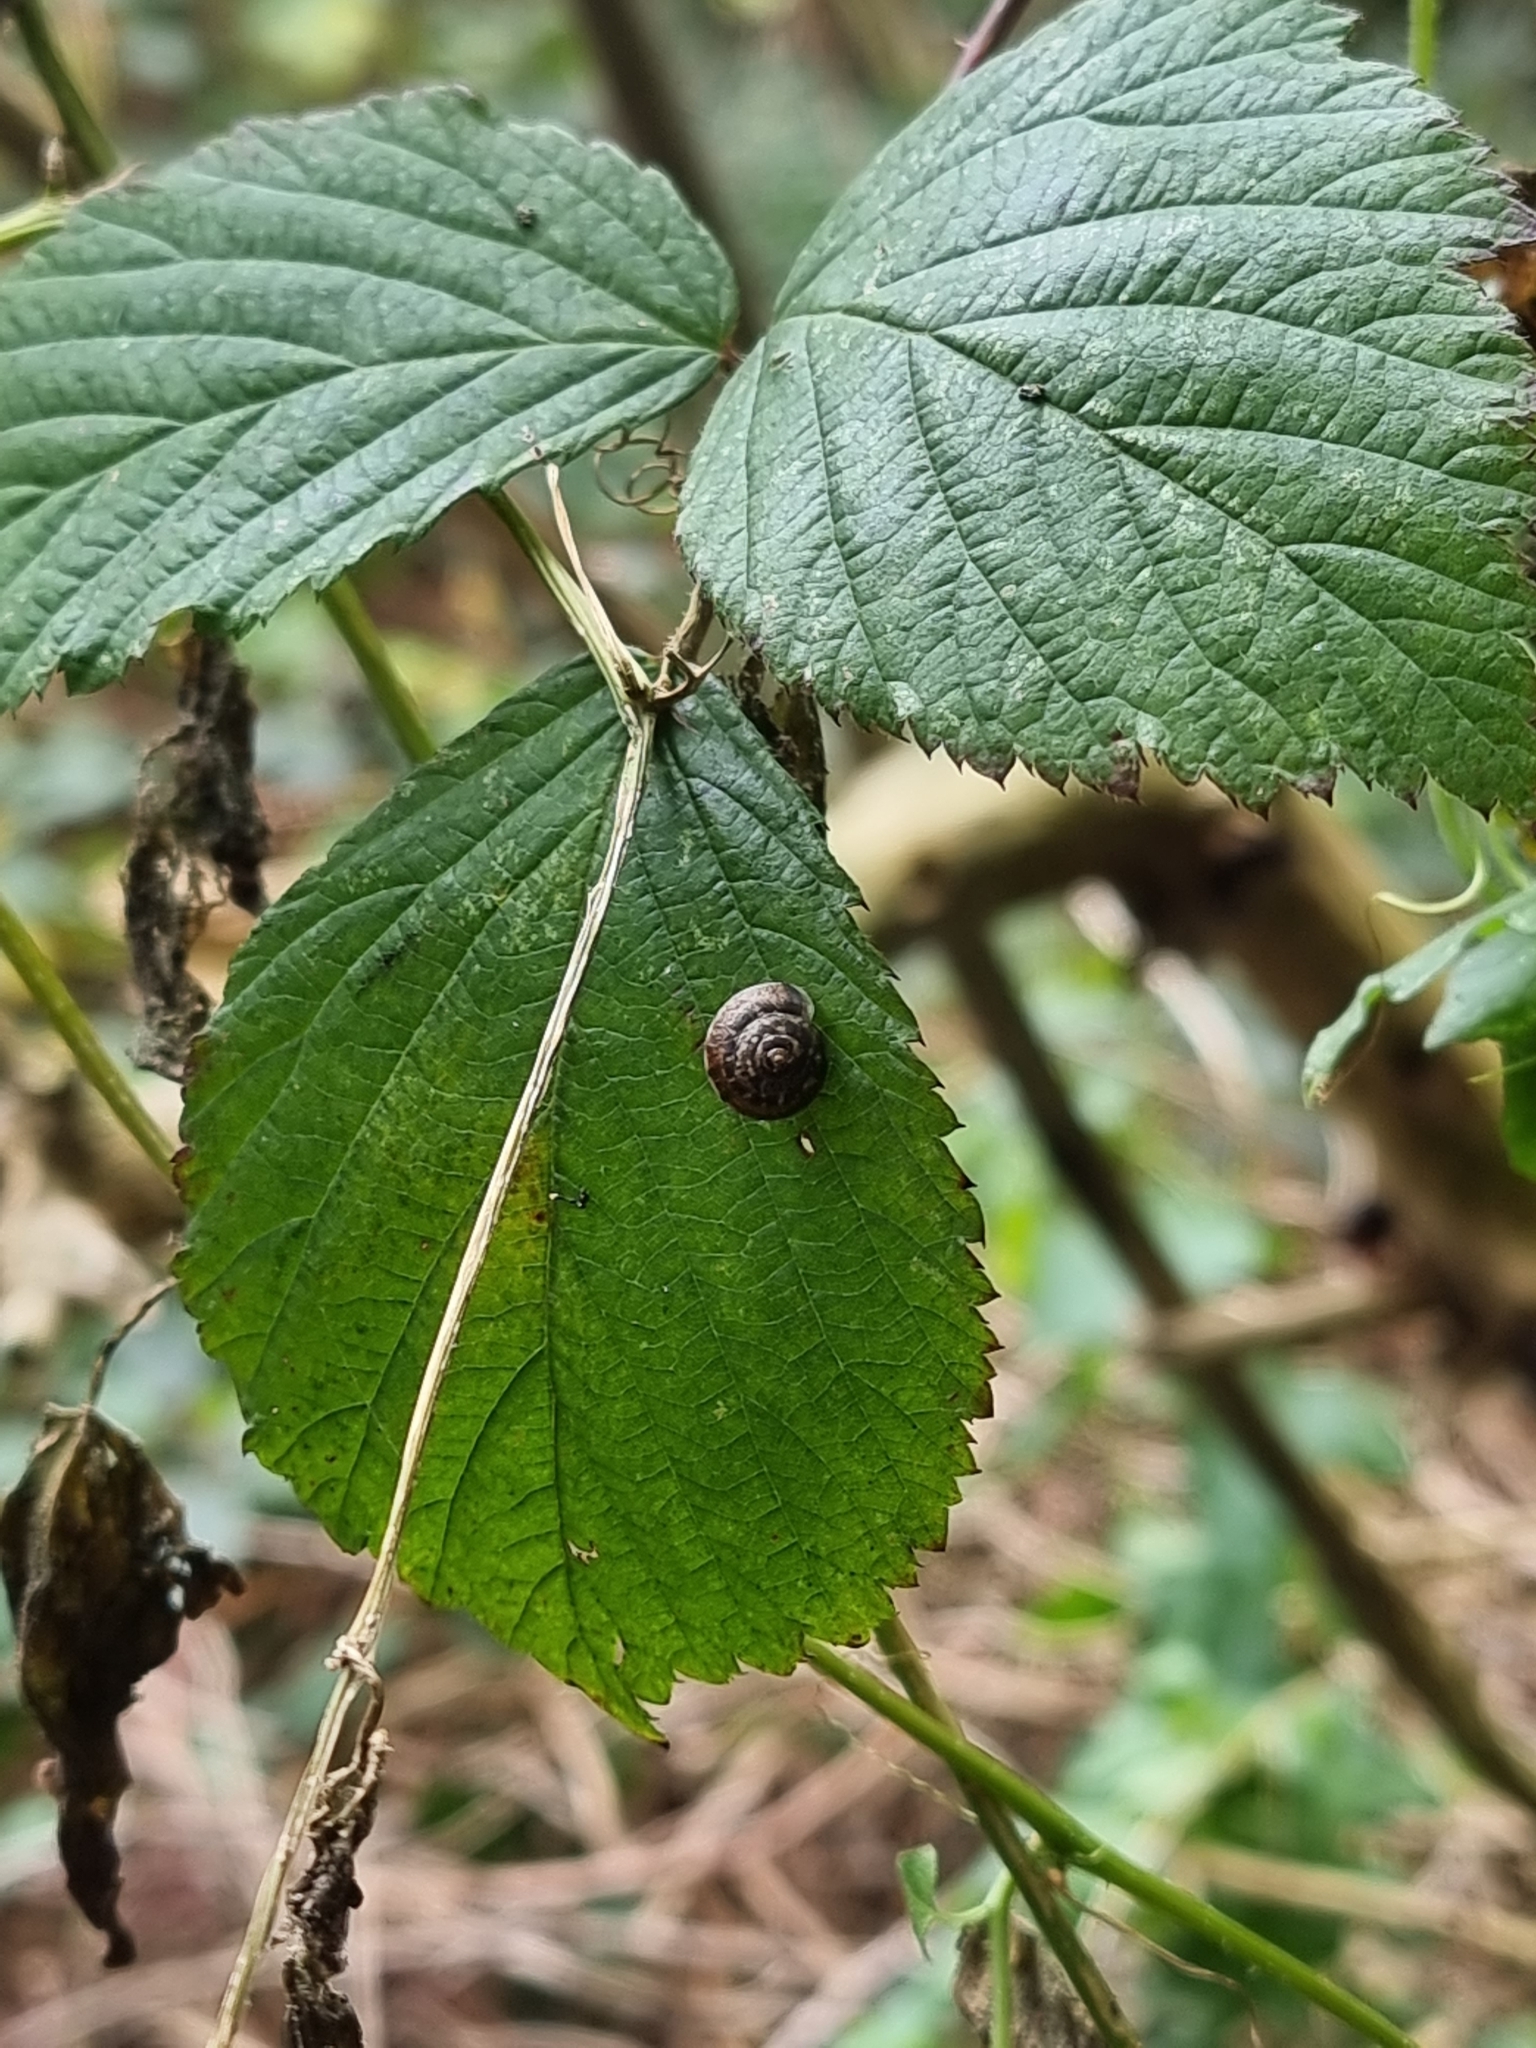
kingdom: Animalia
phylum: Mollusca
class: Gastropoda
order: Stylommatophora
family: Hygromiidae
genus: Hygromia
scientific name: Hygromia cinctella
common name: Girdled snail
